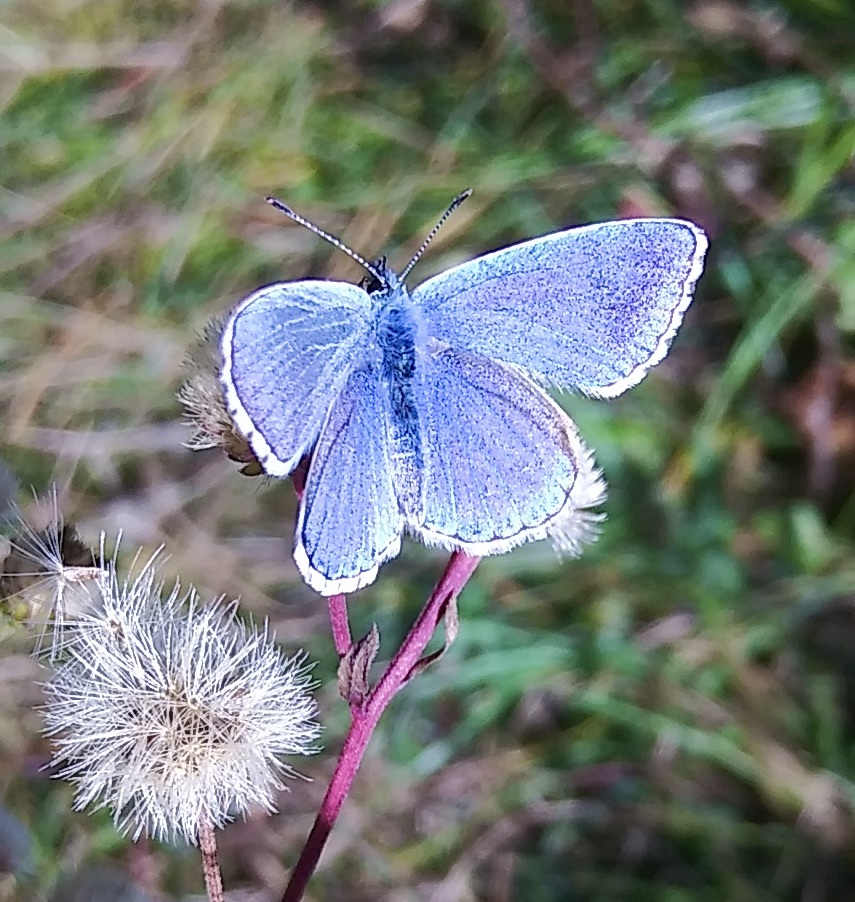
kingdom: Animalia
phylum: Arthropoda
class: Insecta
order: Lepidoptera
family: Lycaenidae
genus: Lysandra
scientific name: Lysandra bellargus
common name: Adonis blue
